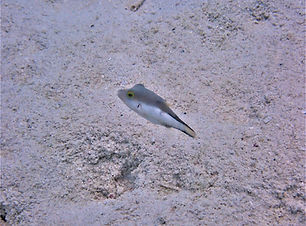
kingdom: Animalia
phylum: Chordata
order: Tetraodontiformes
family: Tetraodontidae
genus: Canthigaster
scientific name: Canthigaster rostrata
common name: Caribbean sharpnose-puffer
